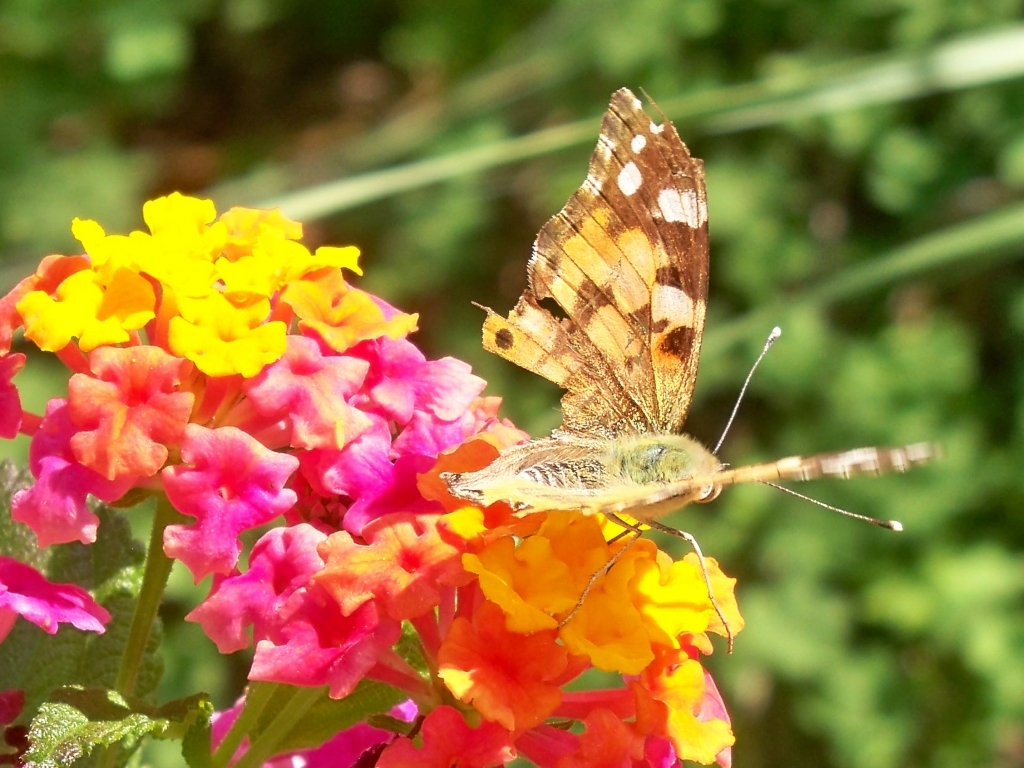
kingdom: Animalia
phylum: Arthropoda
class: Insecta
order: Lepidoptera
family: Nymphalidae
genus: Vanessa
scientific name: Vanessa cardui
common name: Painted lady
